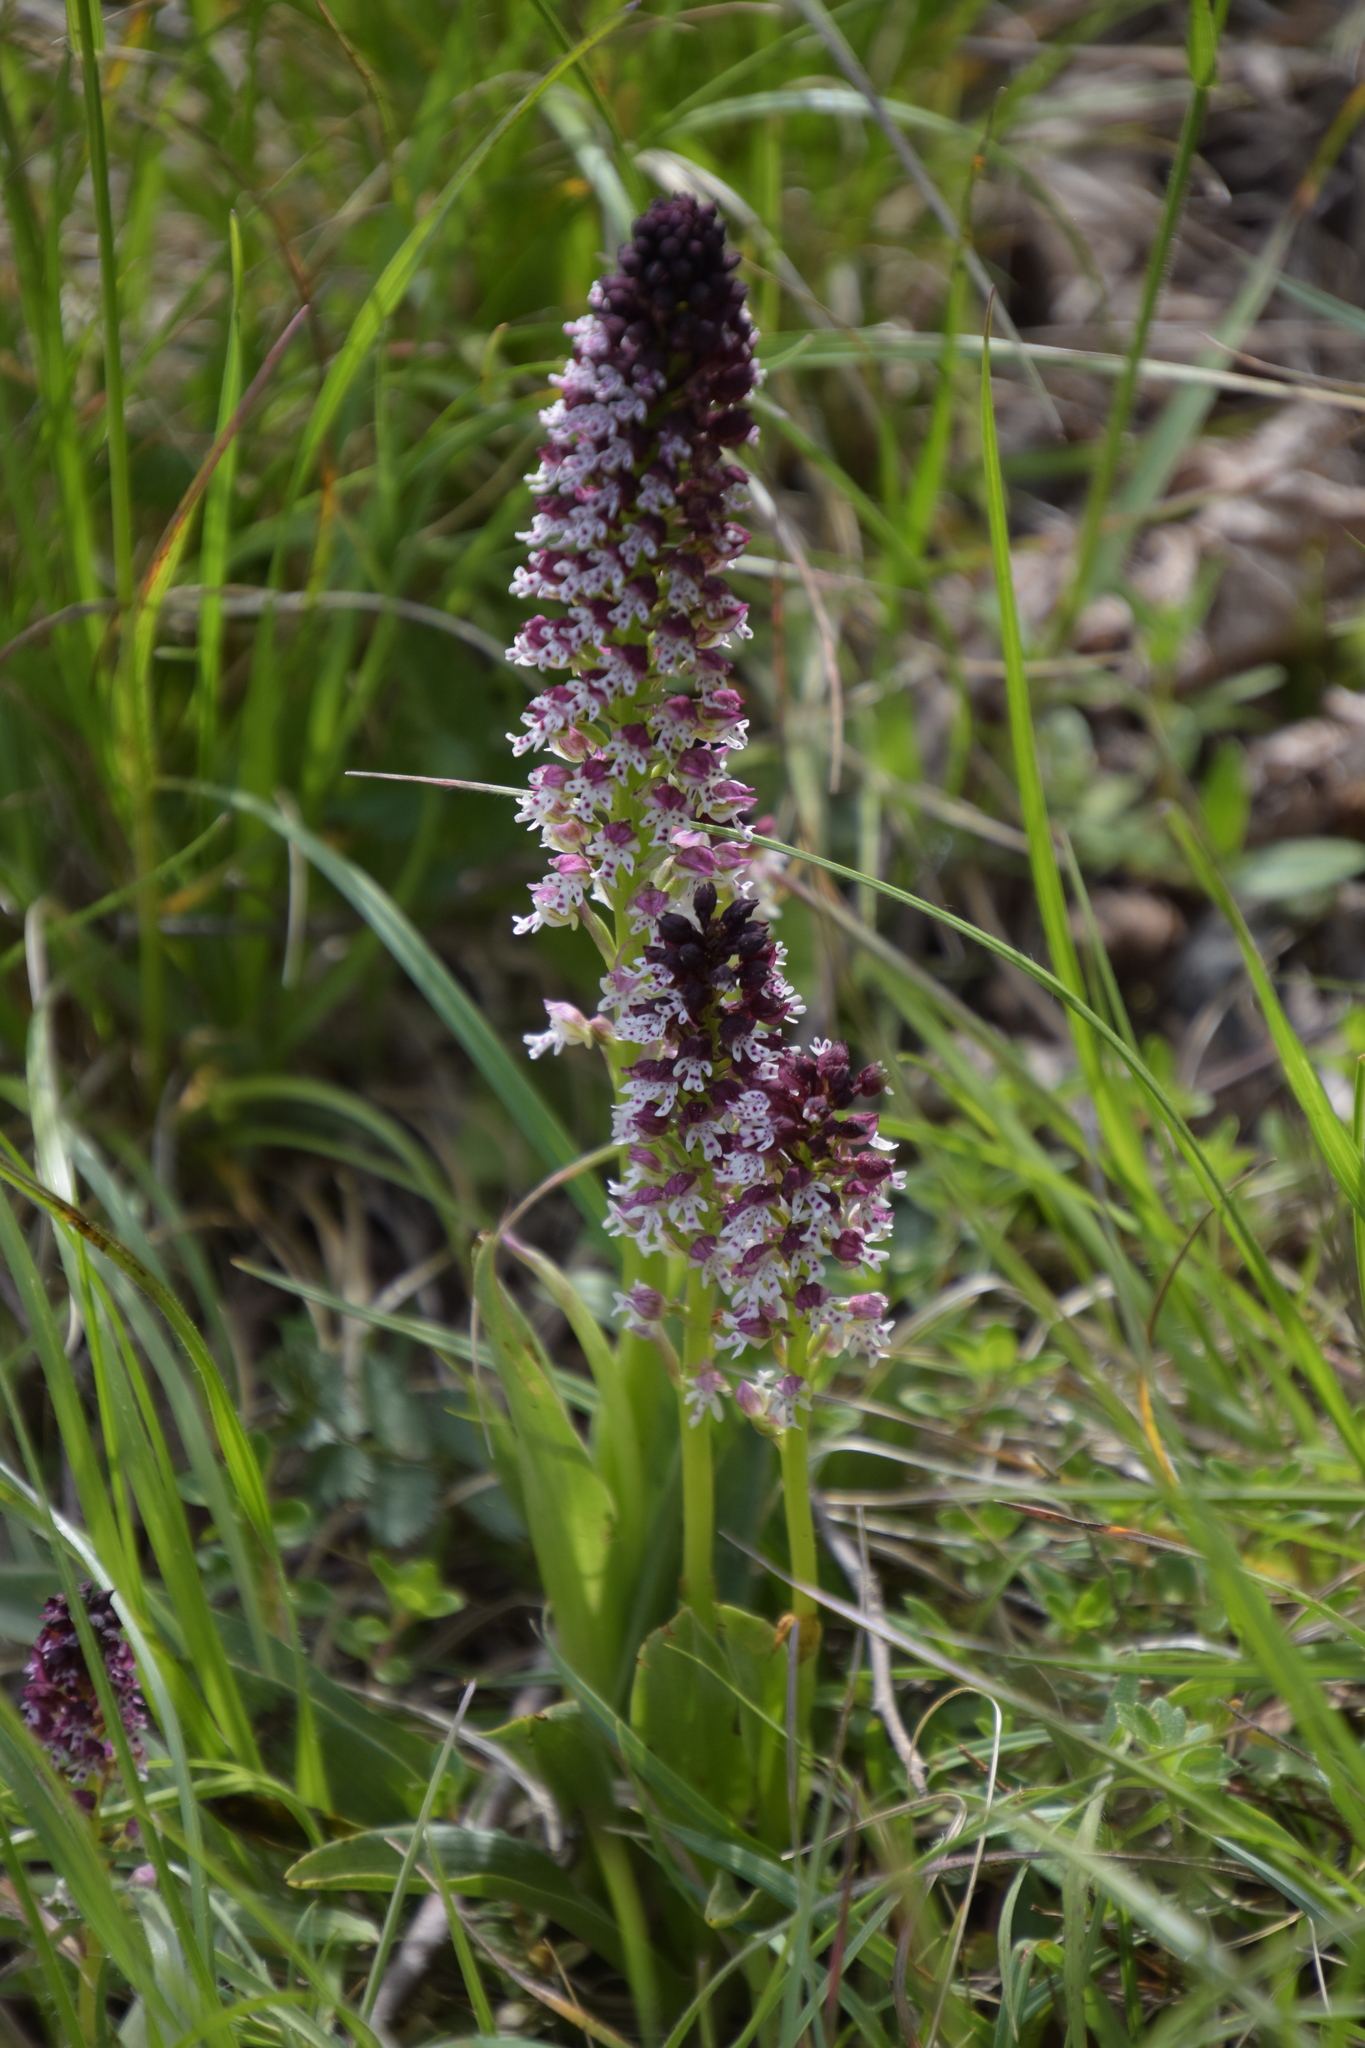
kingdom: Plantae
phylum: Tracheophyta
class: Liliopsida
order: Asparagales
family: Orchidaceae
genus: Neotinea
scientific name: Neotinea ustulata
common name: Burnt orchid
